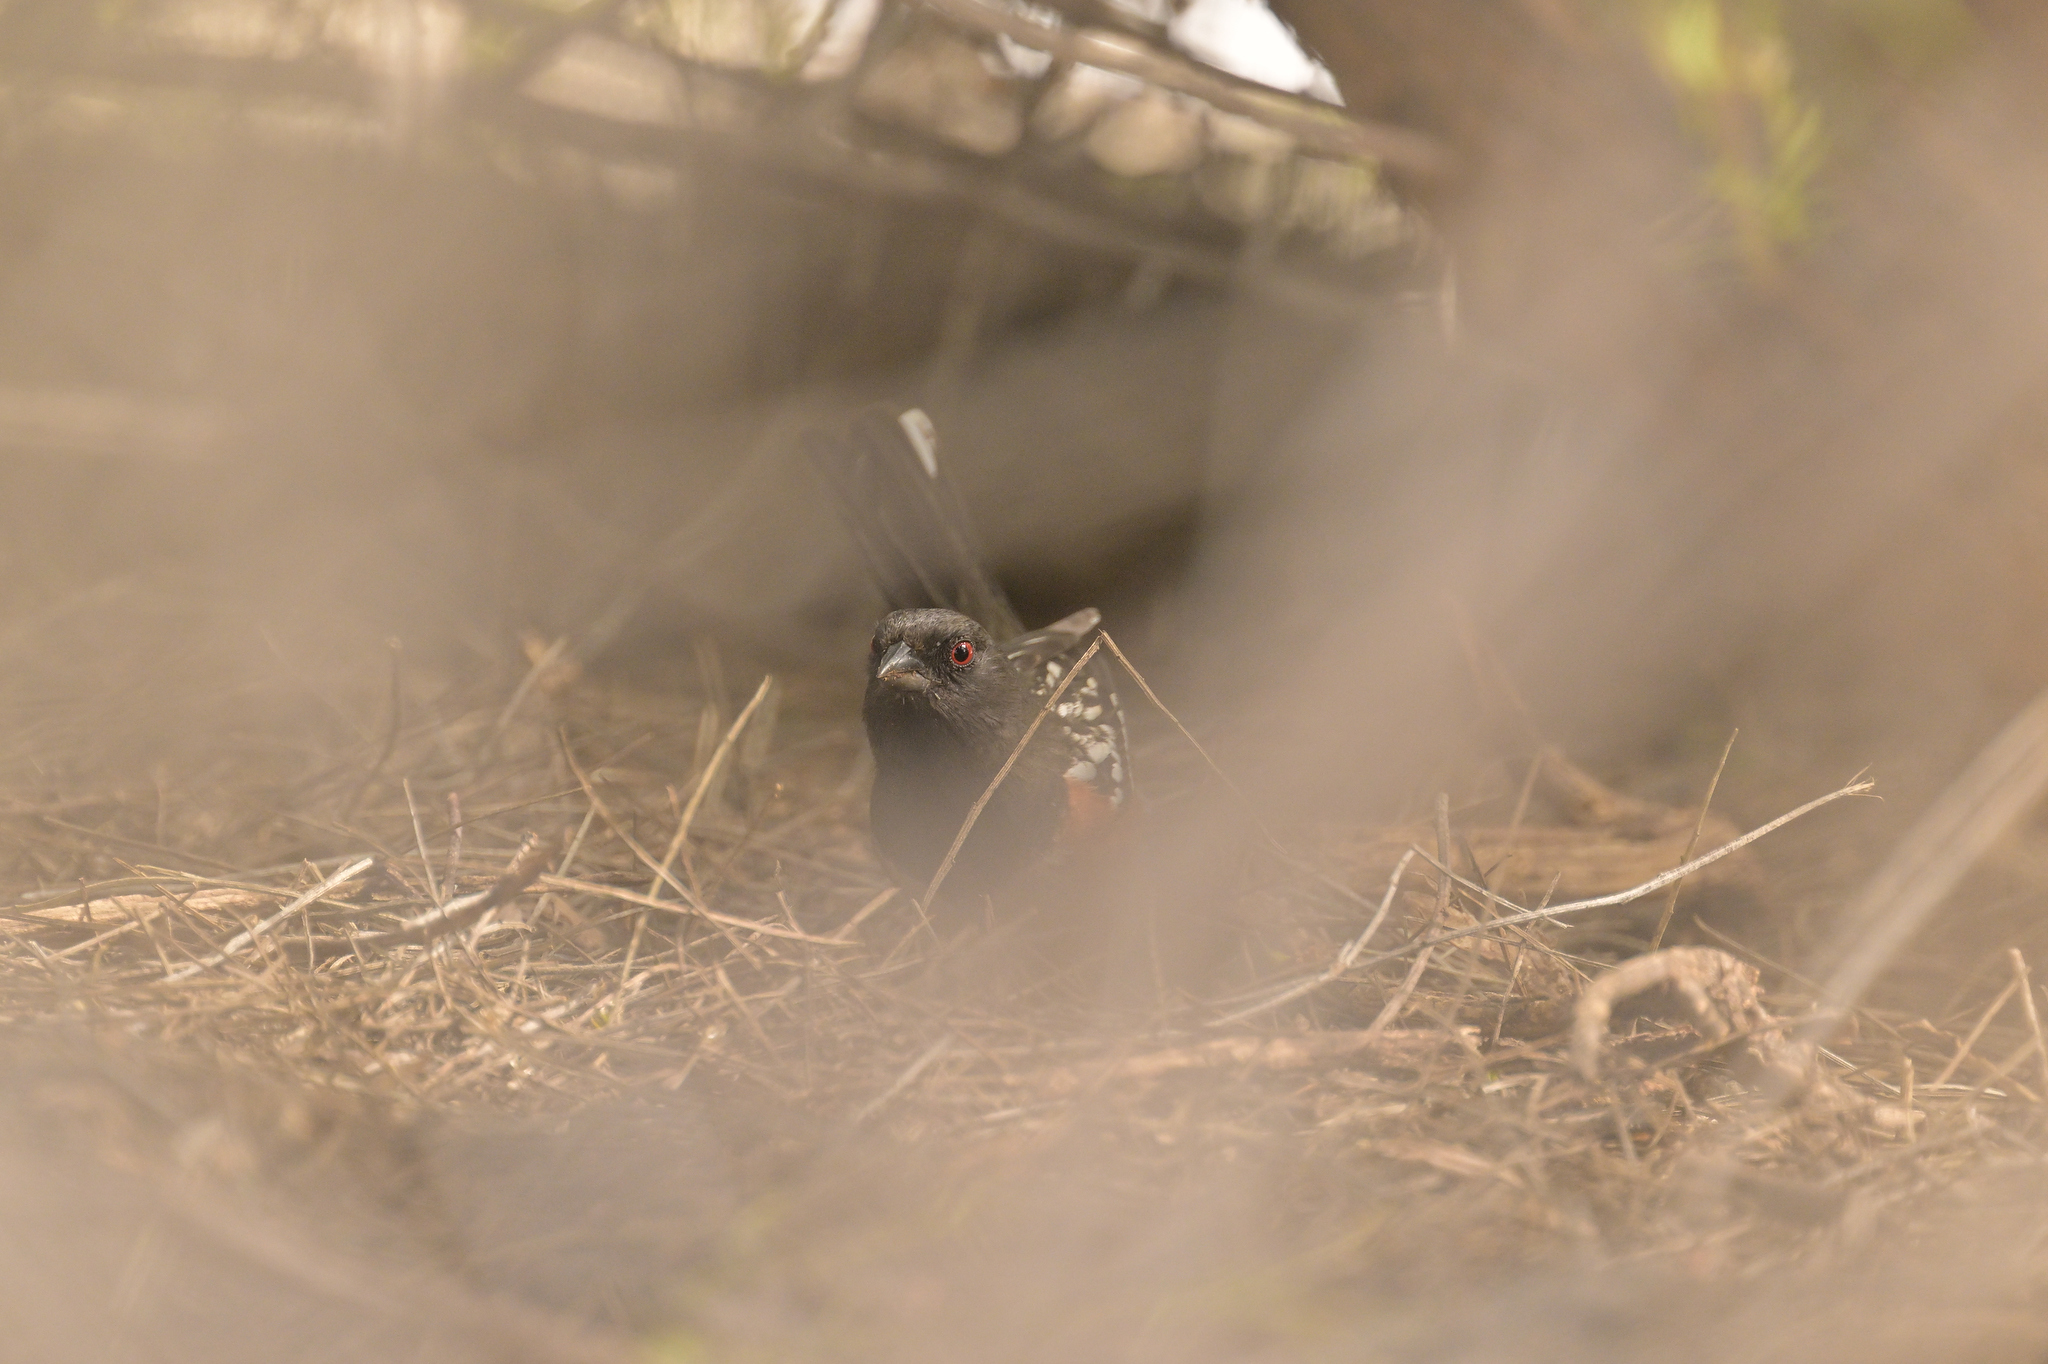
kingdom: Animalia
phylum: Chordata
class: Aves
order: Passeriformes
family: Passerellidae
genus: Pipilo
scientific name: Pipilo maculatus
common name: Spotted towhee
